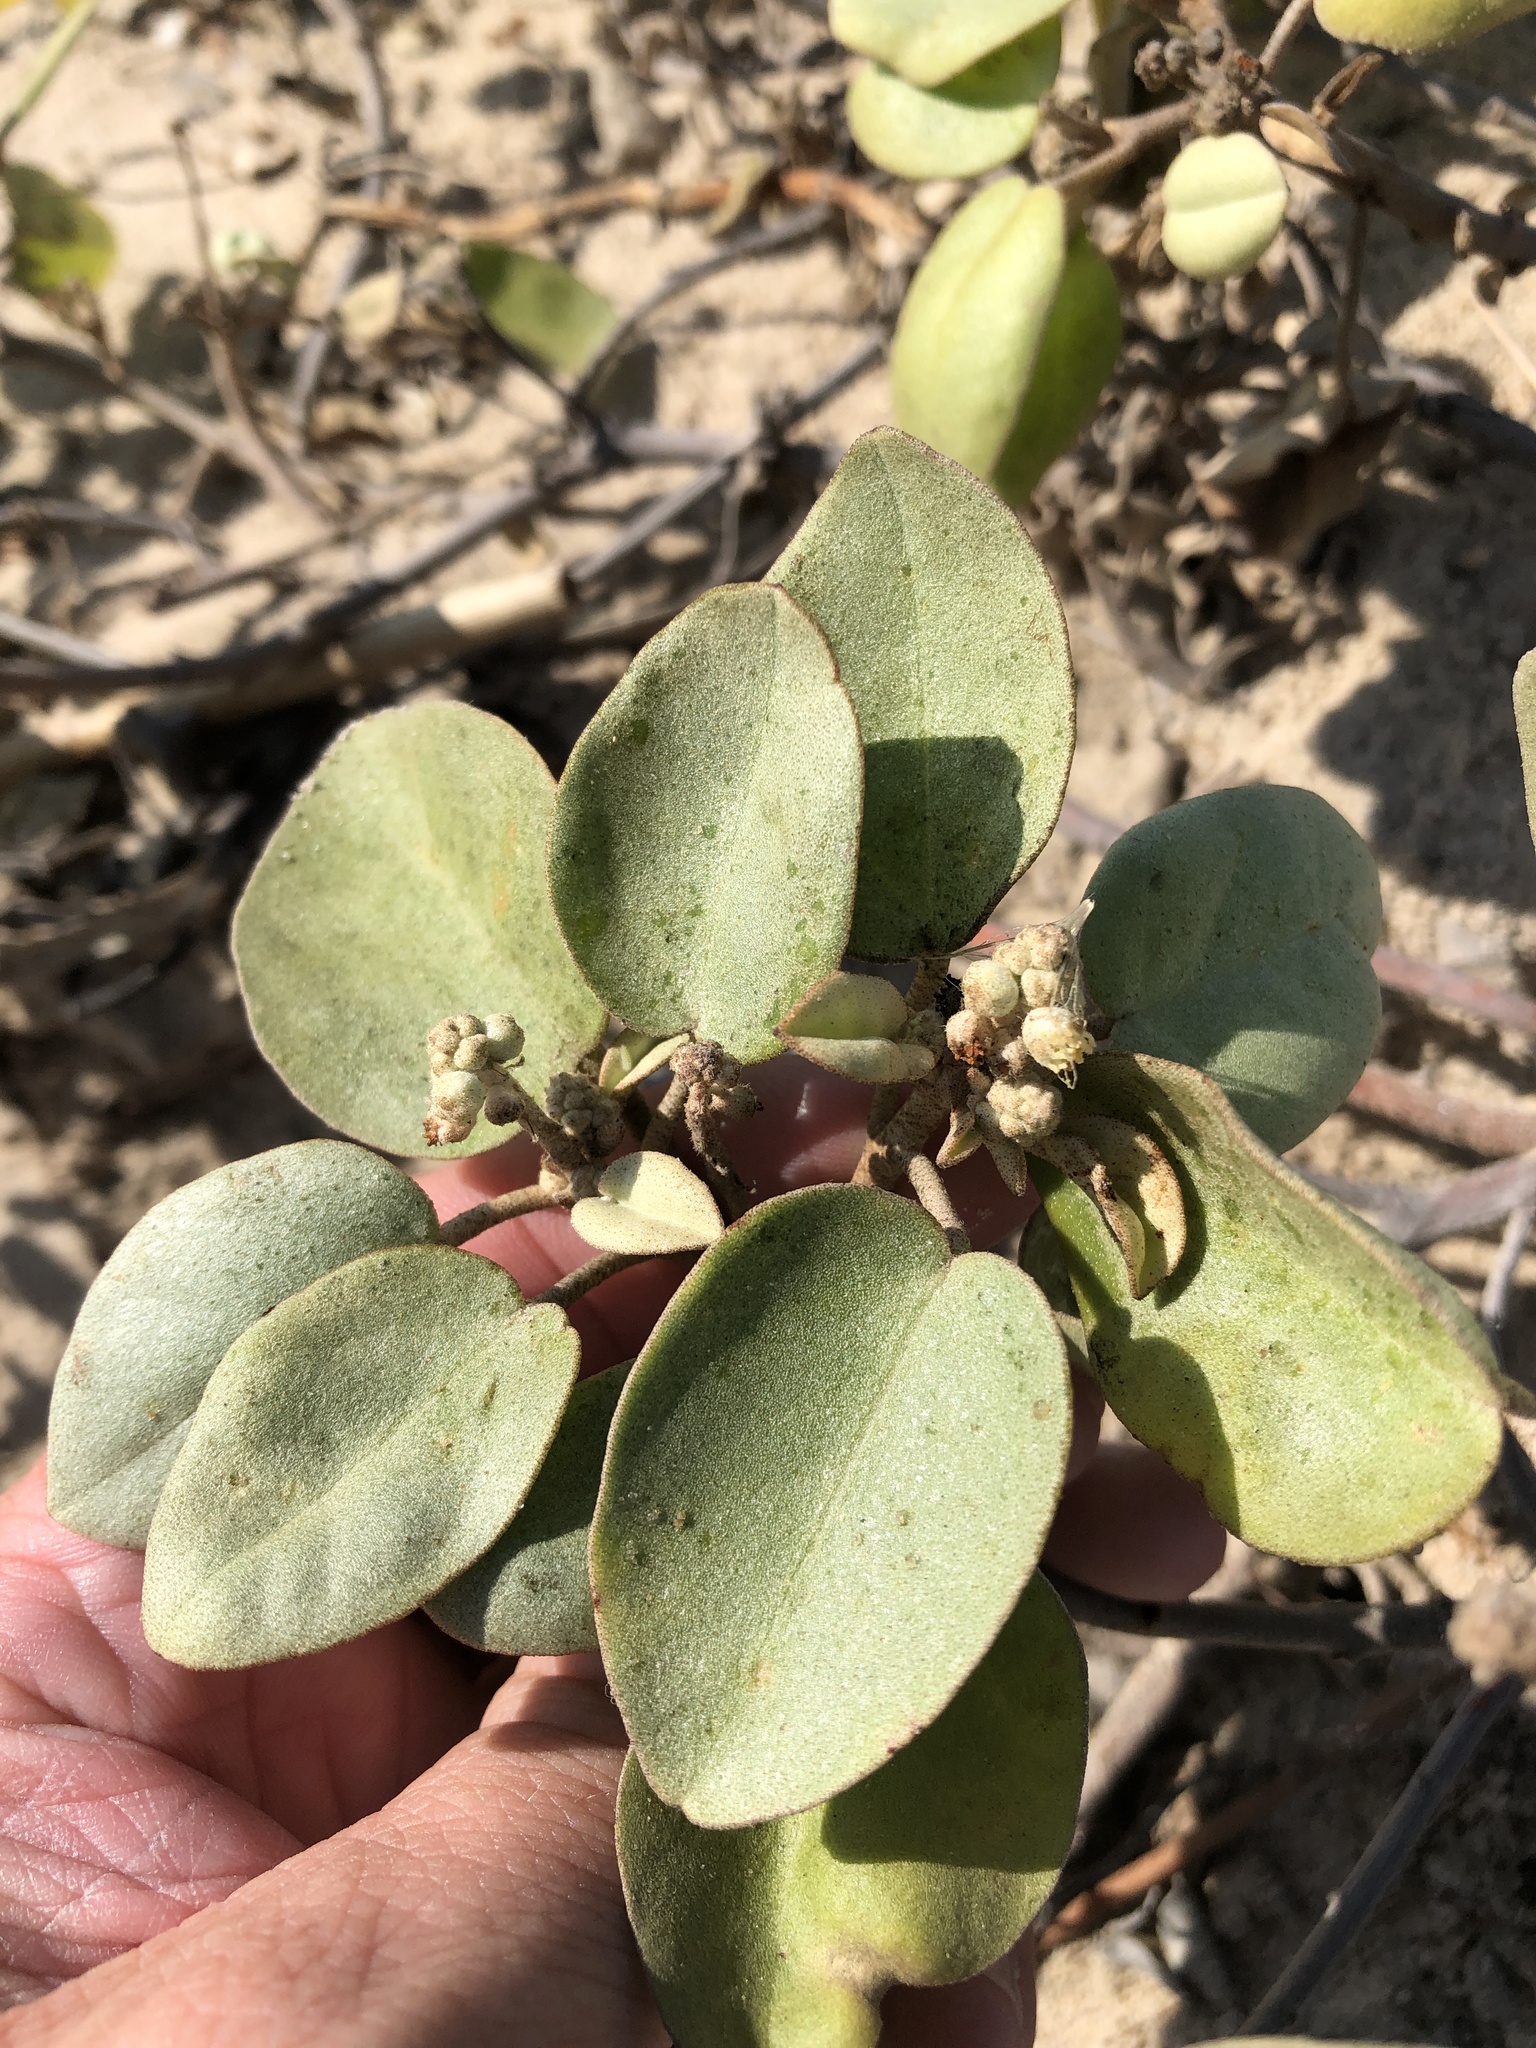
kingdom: Plantae
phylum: Tracheophyta
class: Magnoliopsida
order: Malpighiales
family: Euphorbiaceae
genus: Croton
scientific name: Croton punctatus
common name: Beach-tea
